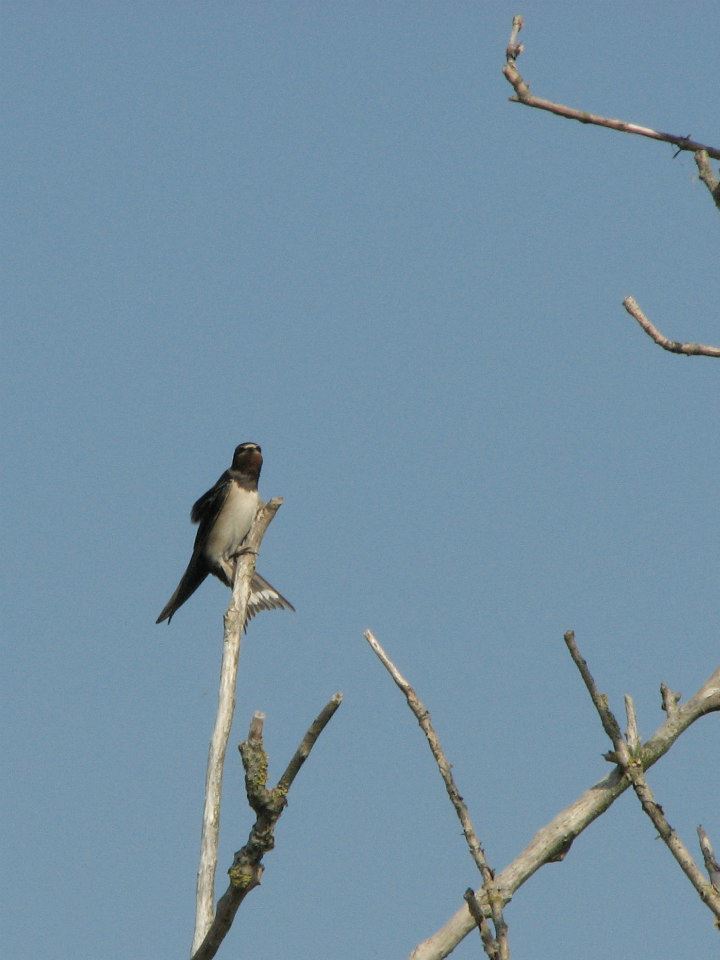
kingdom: Animalia
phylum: Chordata
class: Aves
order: Passeriformes
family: Hirundinidae
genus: Hirundo
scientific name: Hirundo rustica
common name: Barn swallow
